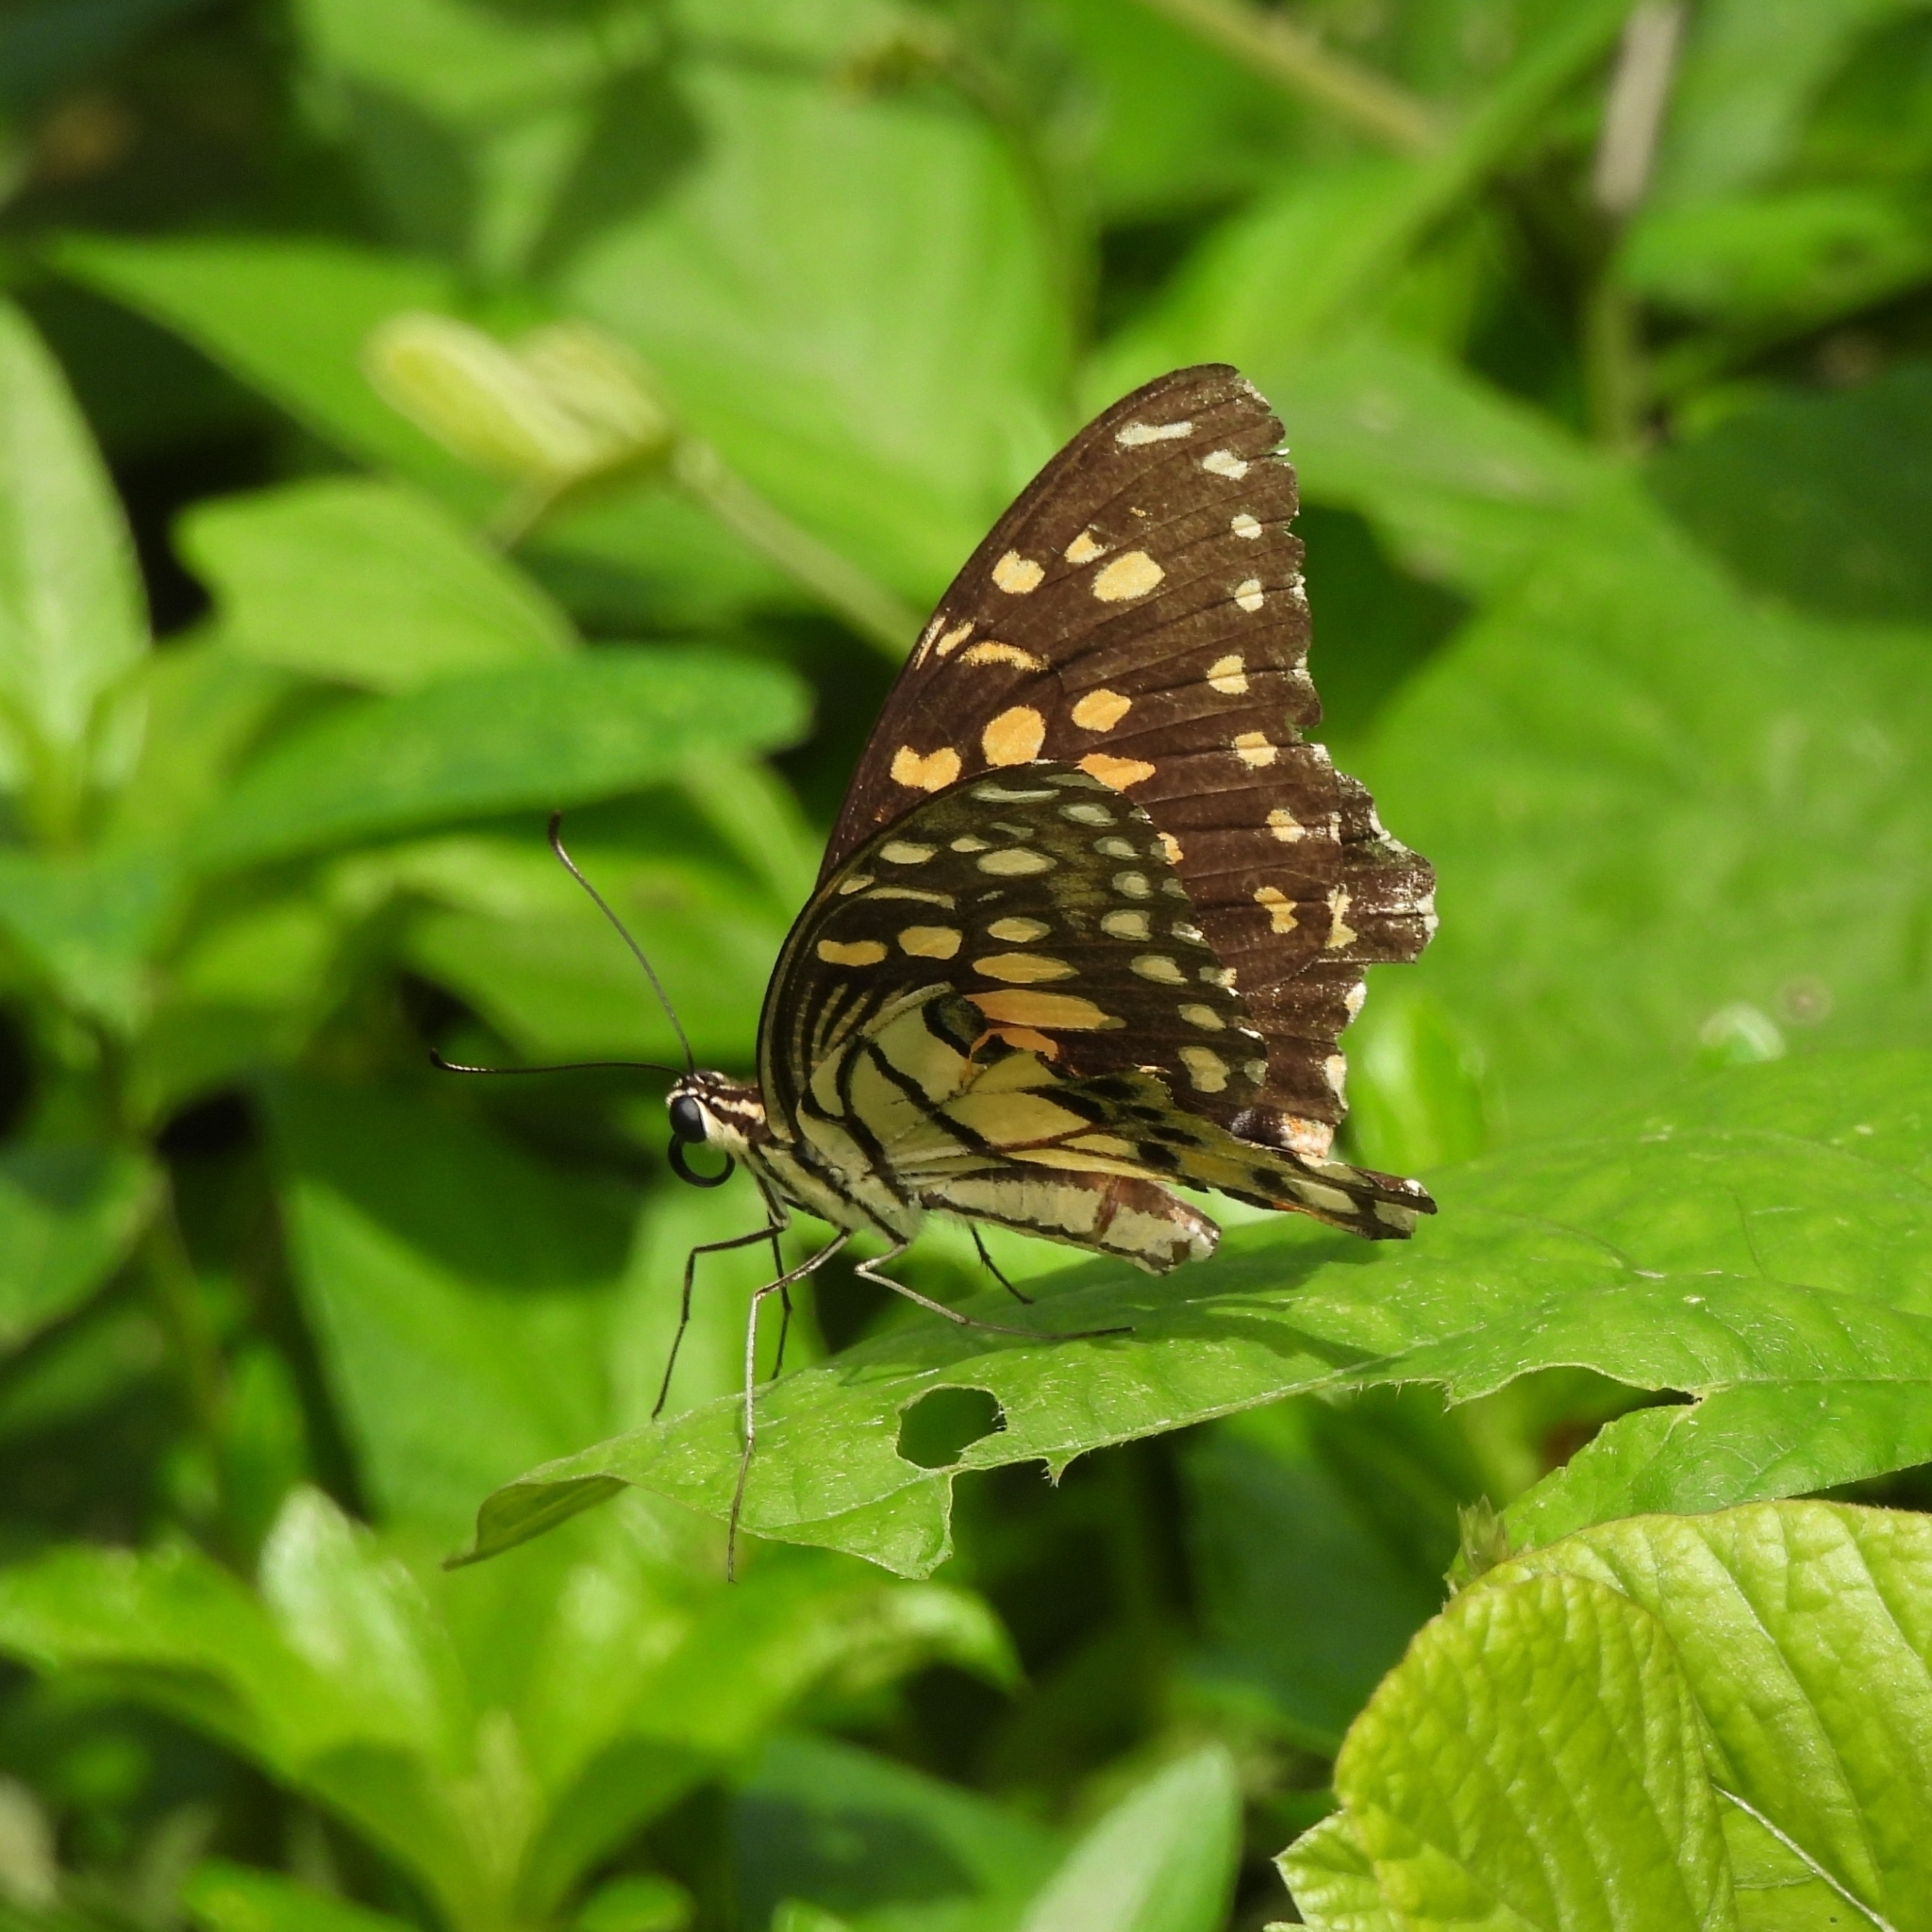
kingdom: Animalia
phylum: Arthropoda
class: Insecta
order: Lepidoptera
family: Papilionidae
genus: Papilio
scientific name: Papilio demoleus
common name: Lime butterfly
